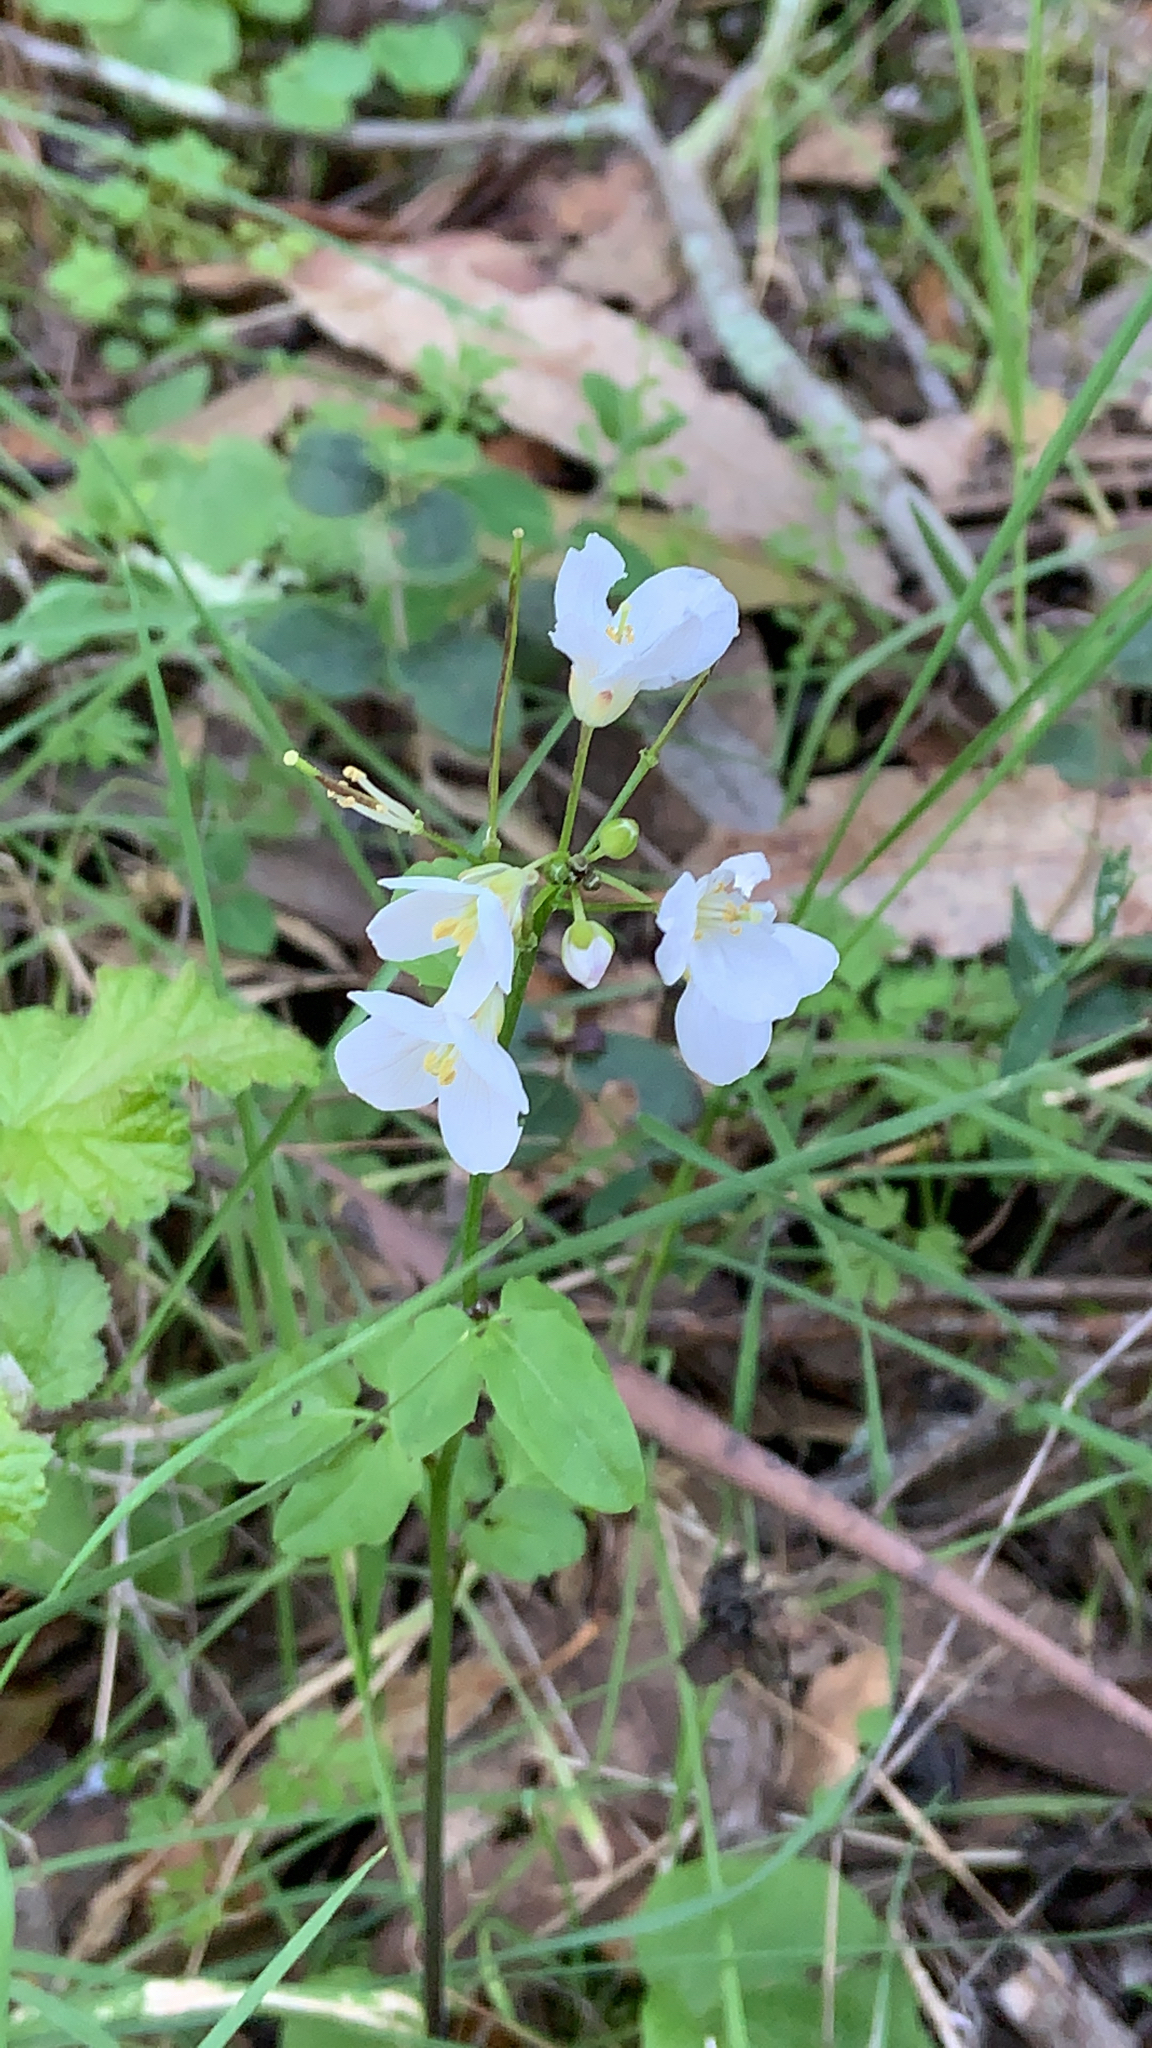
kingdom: Plantae
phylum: Tracheophyta
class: Magnoliopsida
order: Brassicales
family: Brassicaceae
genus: Cardamine
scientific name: Cardamine californica
